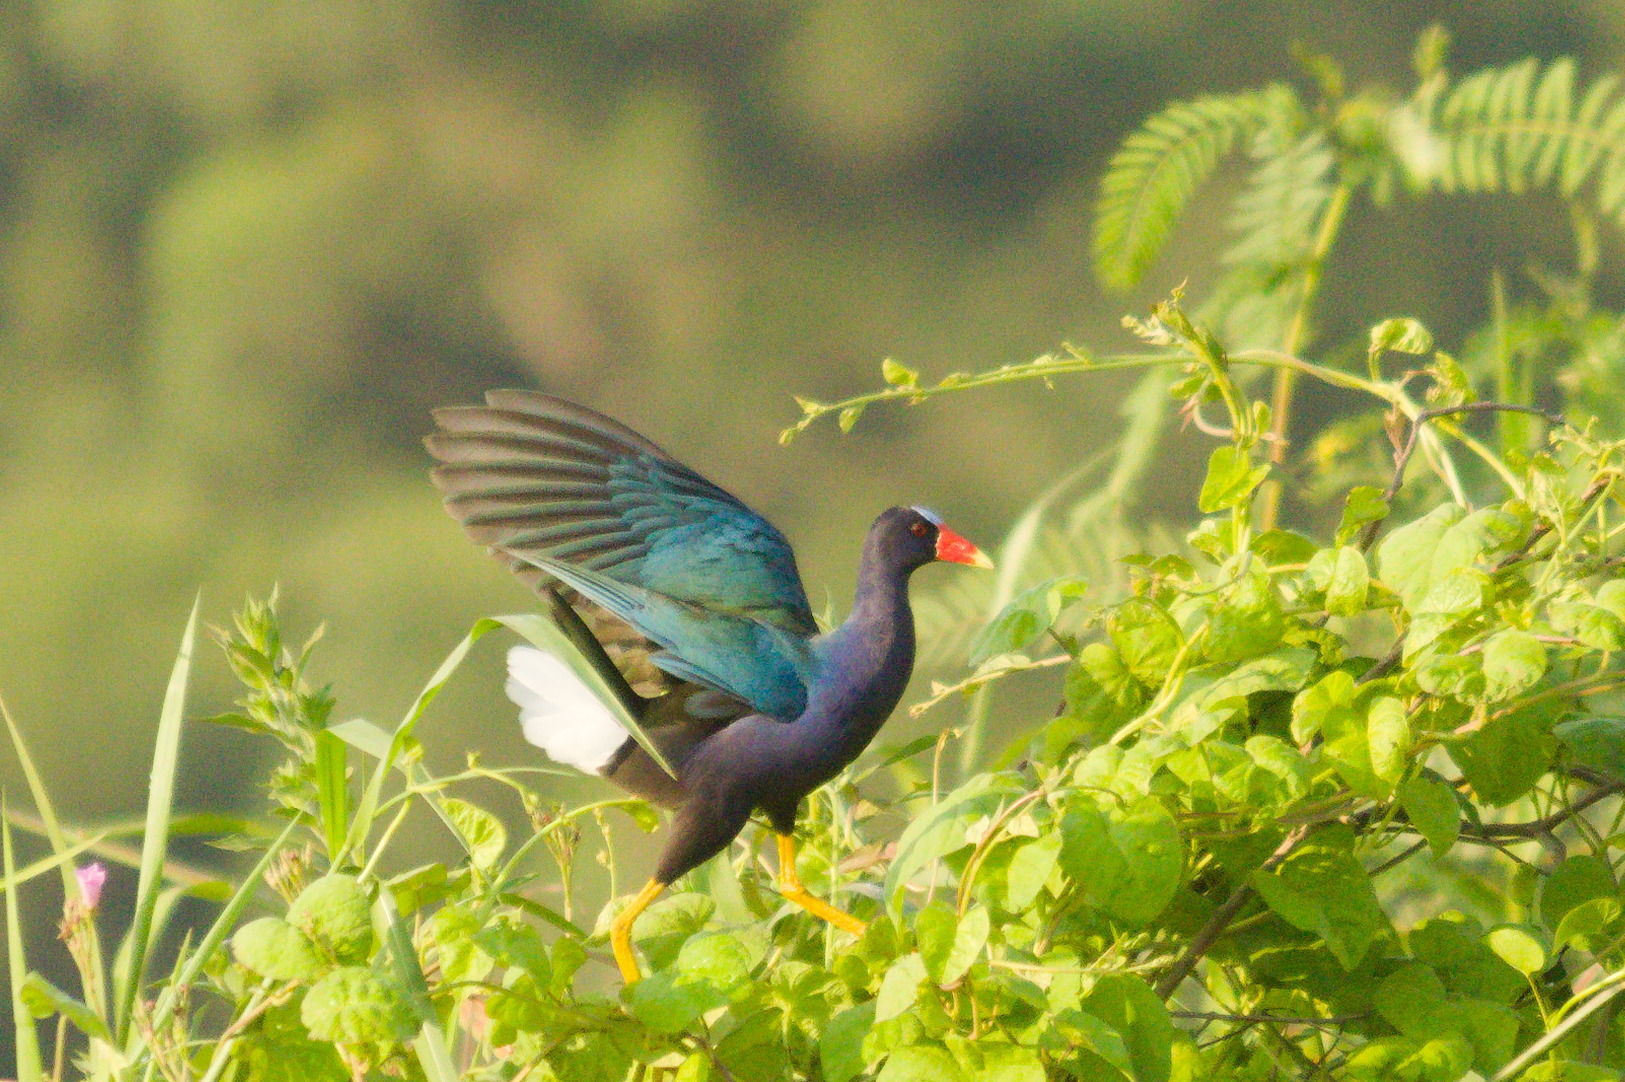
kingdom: Animalia
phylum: Chordata
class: Aves
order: Gruiformes
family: Rallidae
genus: Porphyrio
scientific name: Porphyrio martinica
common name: Purple gallinule
